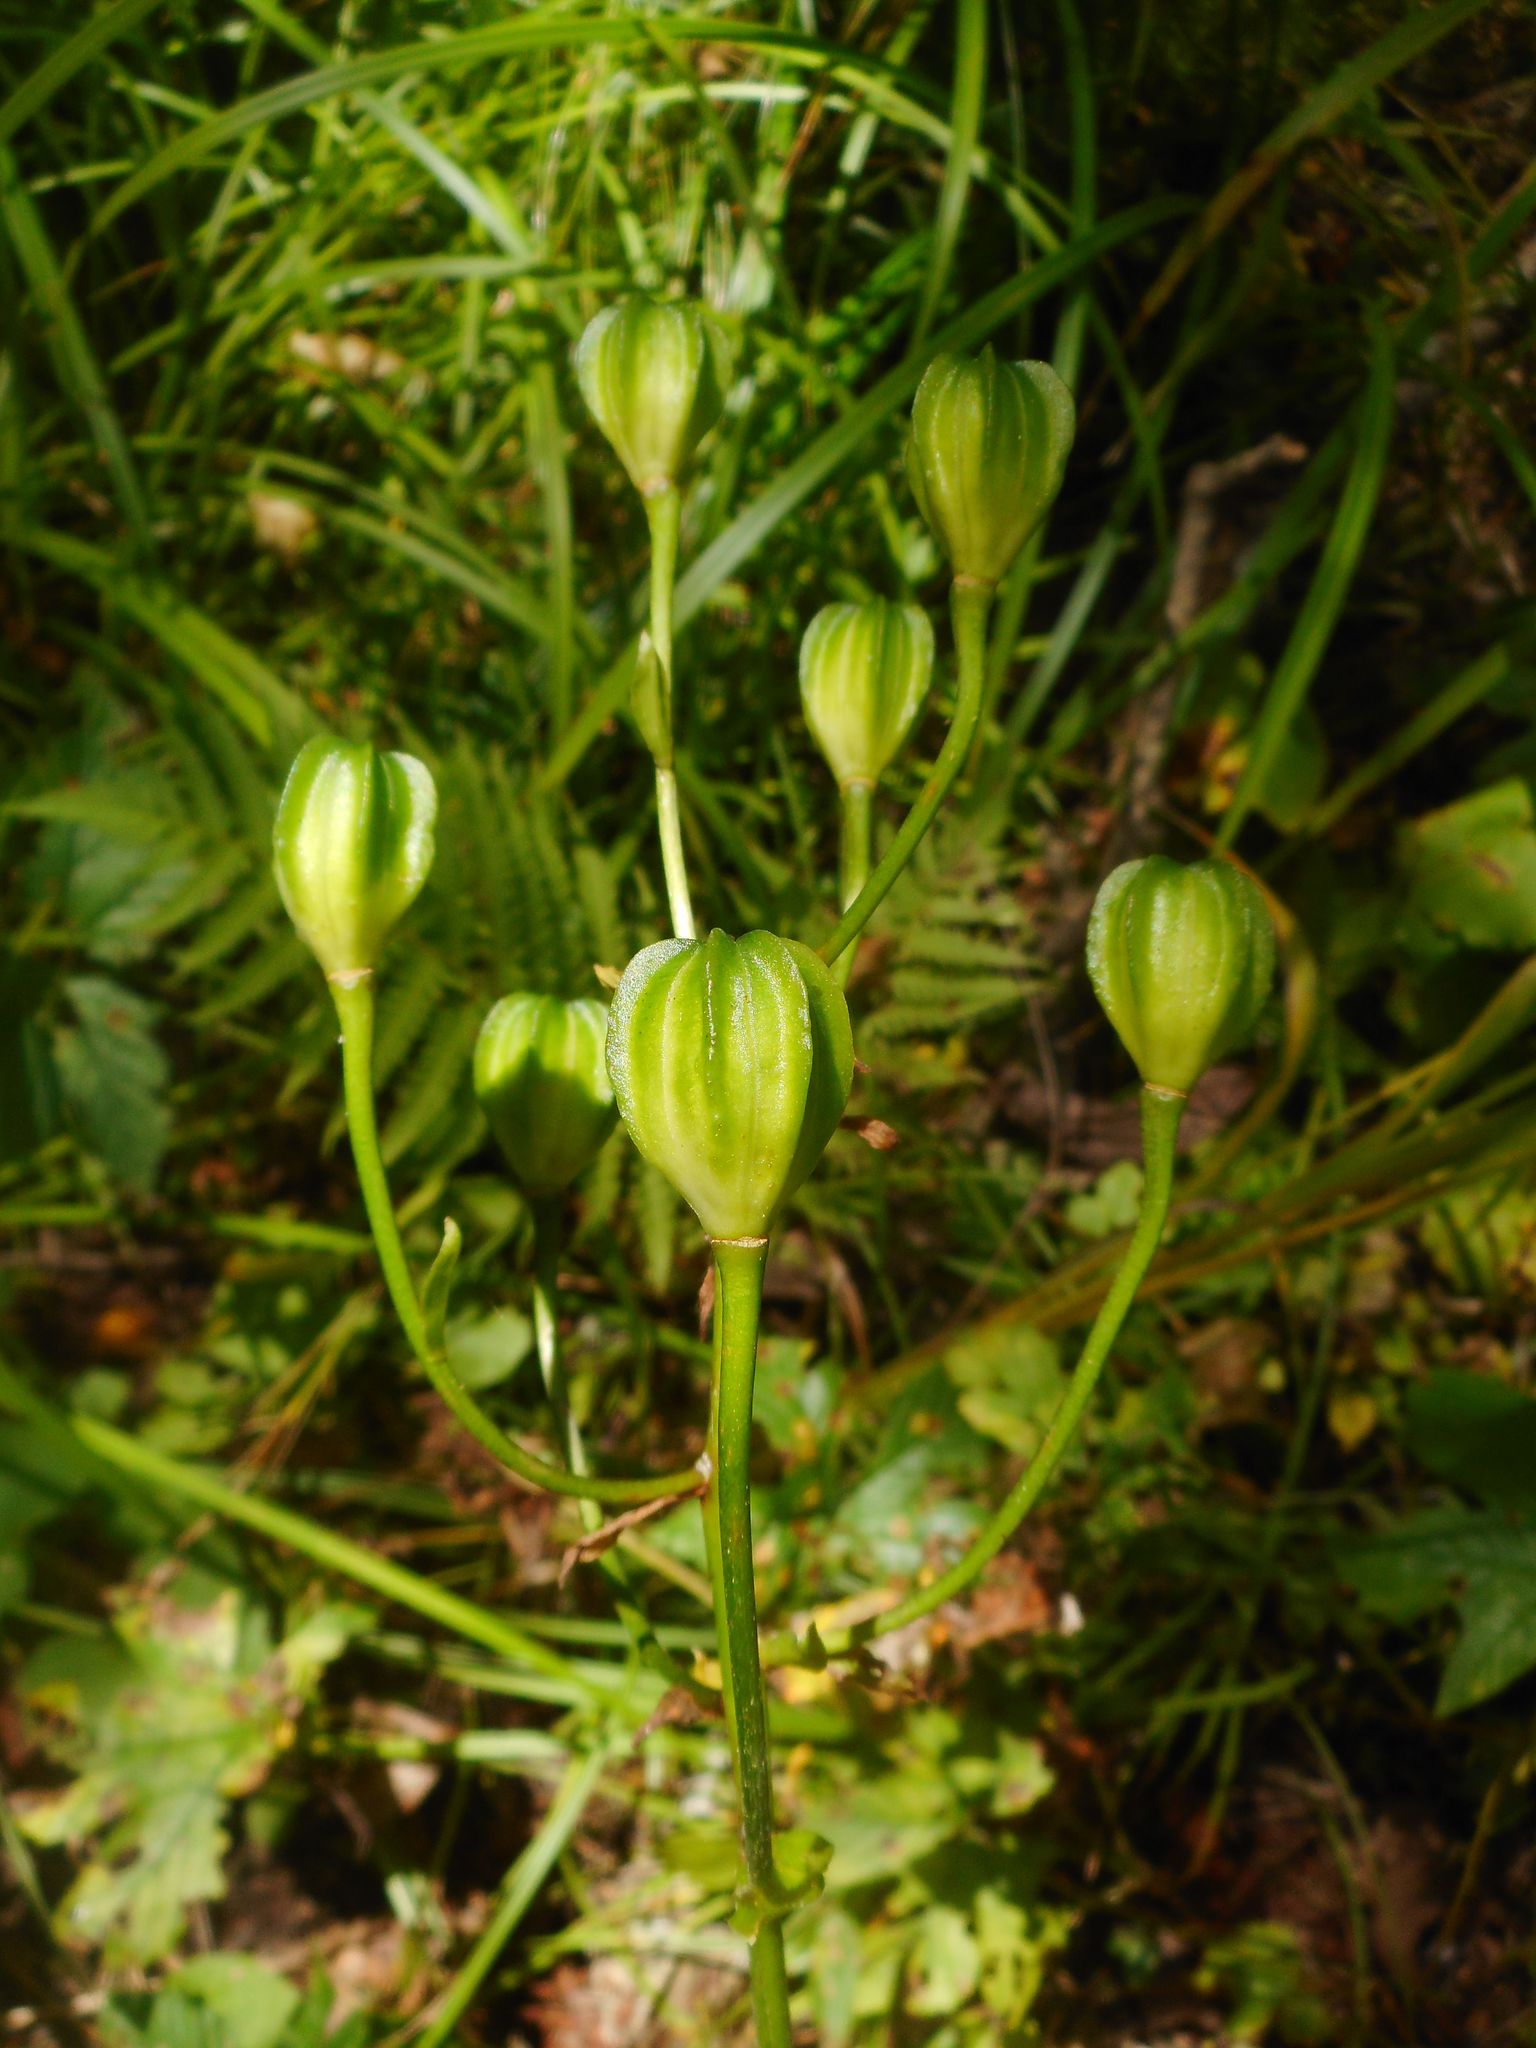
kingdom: Plantae
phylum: Tracheophyta
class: Liliopsida
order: Liliales
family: Liliaceae
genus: Lilium
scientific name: Lilium distichum
